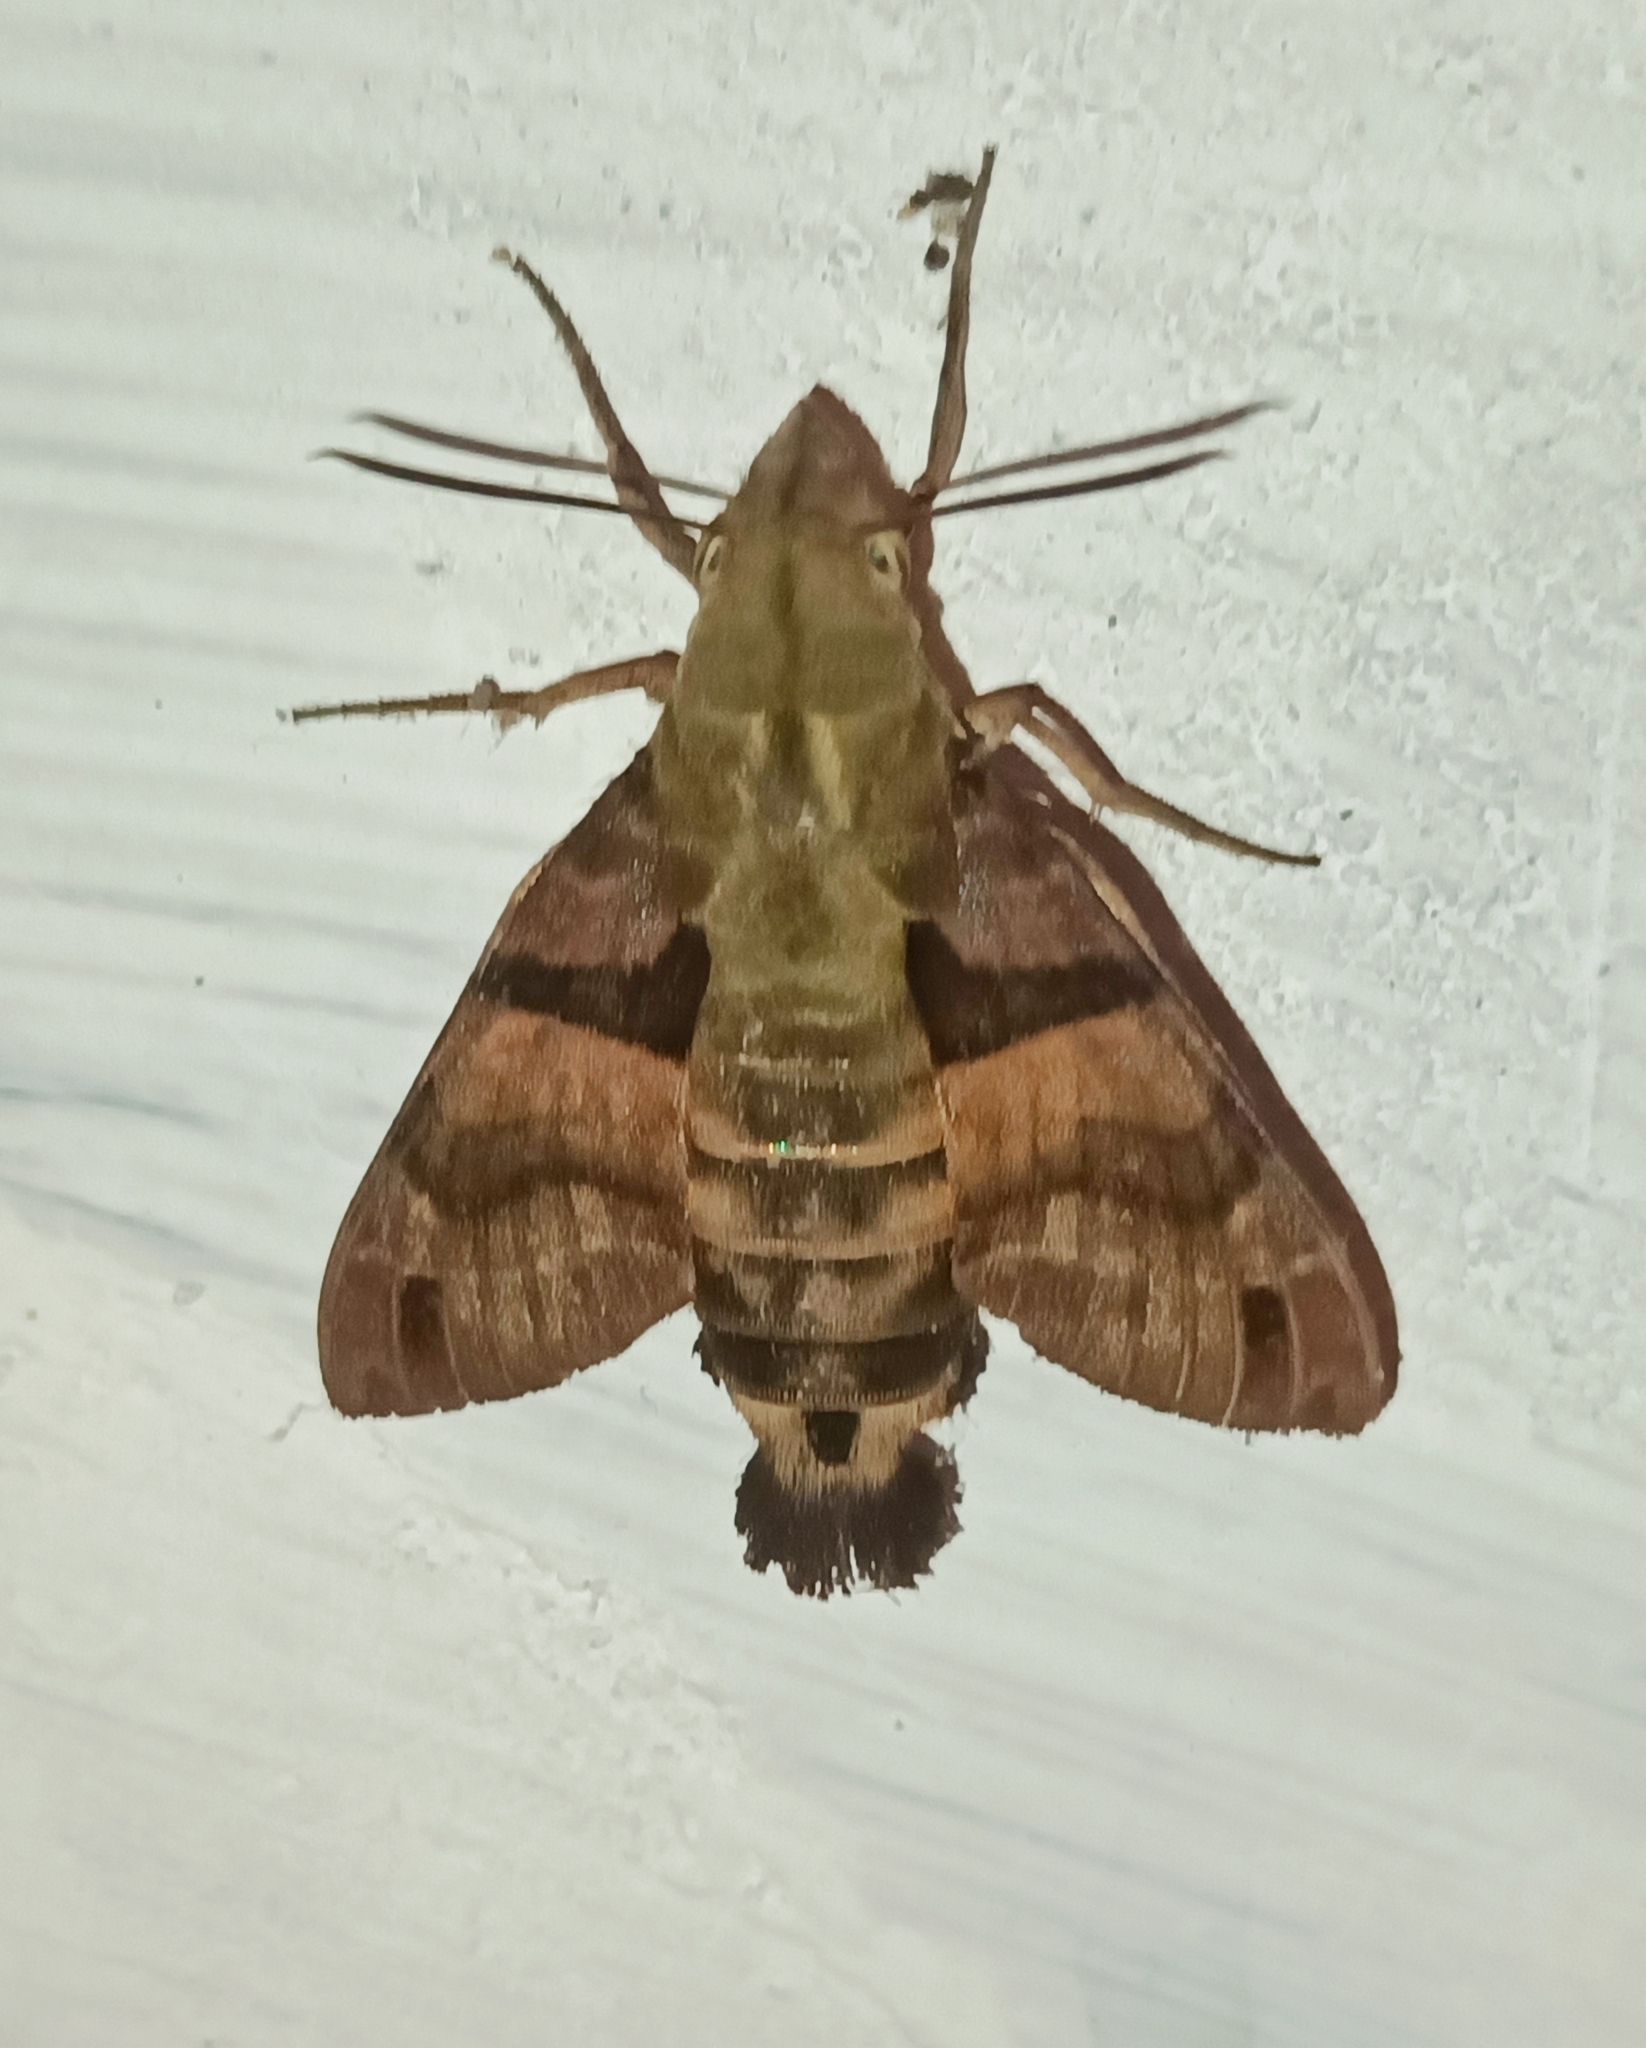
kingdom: Animalia
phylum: Arthropoda
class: Insecta
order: Lepidoptera
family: Sphingidae
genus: Macroglossum
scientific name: Macroglossum sitiene
